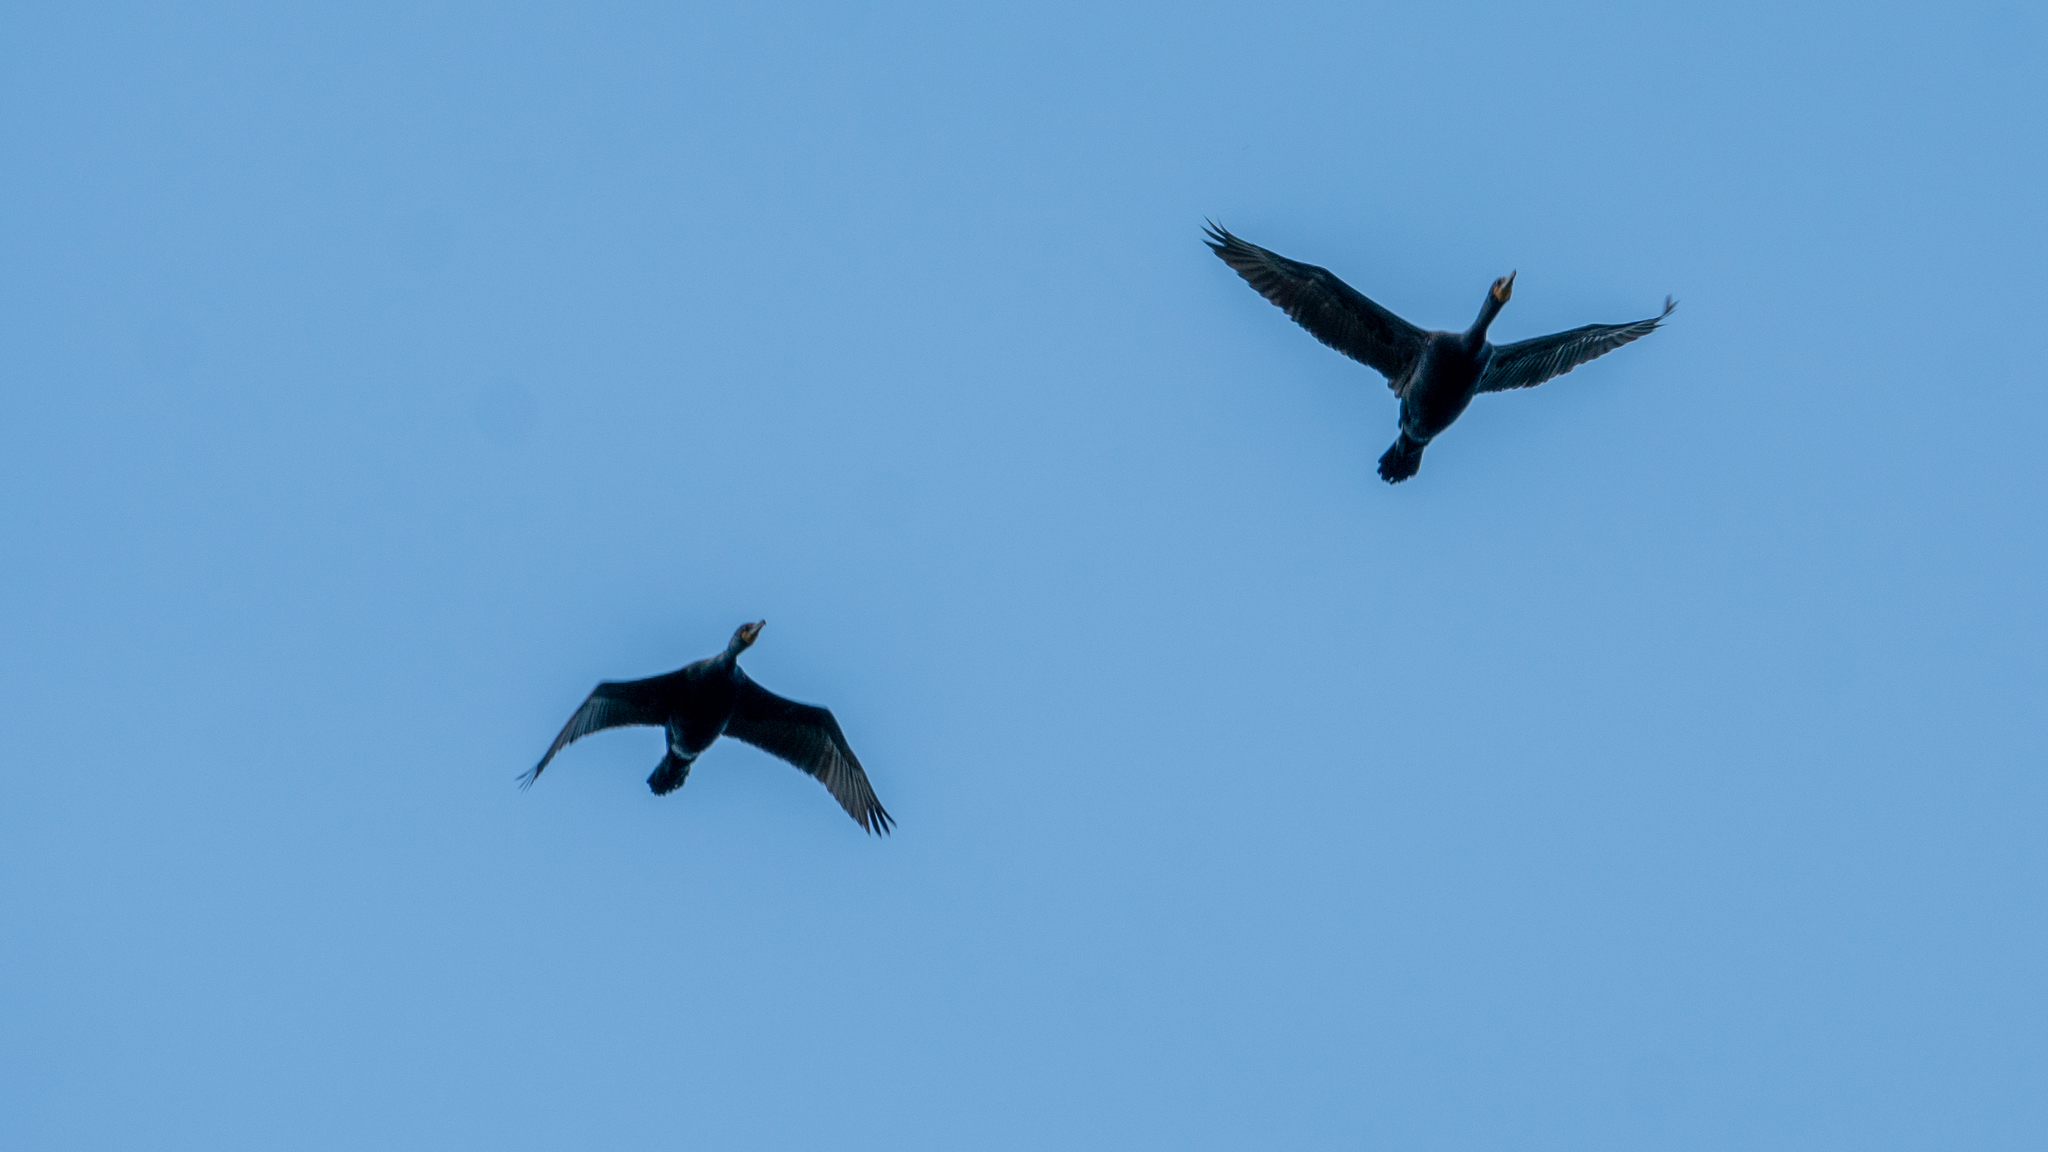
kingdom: Animalia
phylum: Chordata
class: Aves
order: Suliformes
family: Phalacrocoracidae
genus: Phalacrocorax
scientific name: Phalacrocorax auritus
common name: Double-crested cormorant
